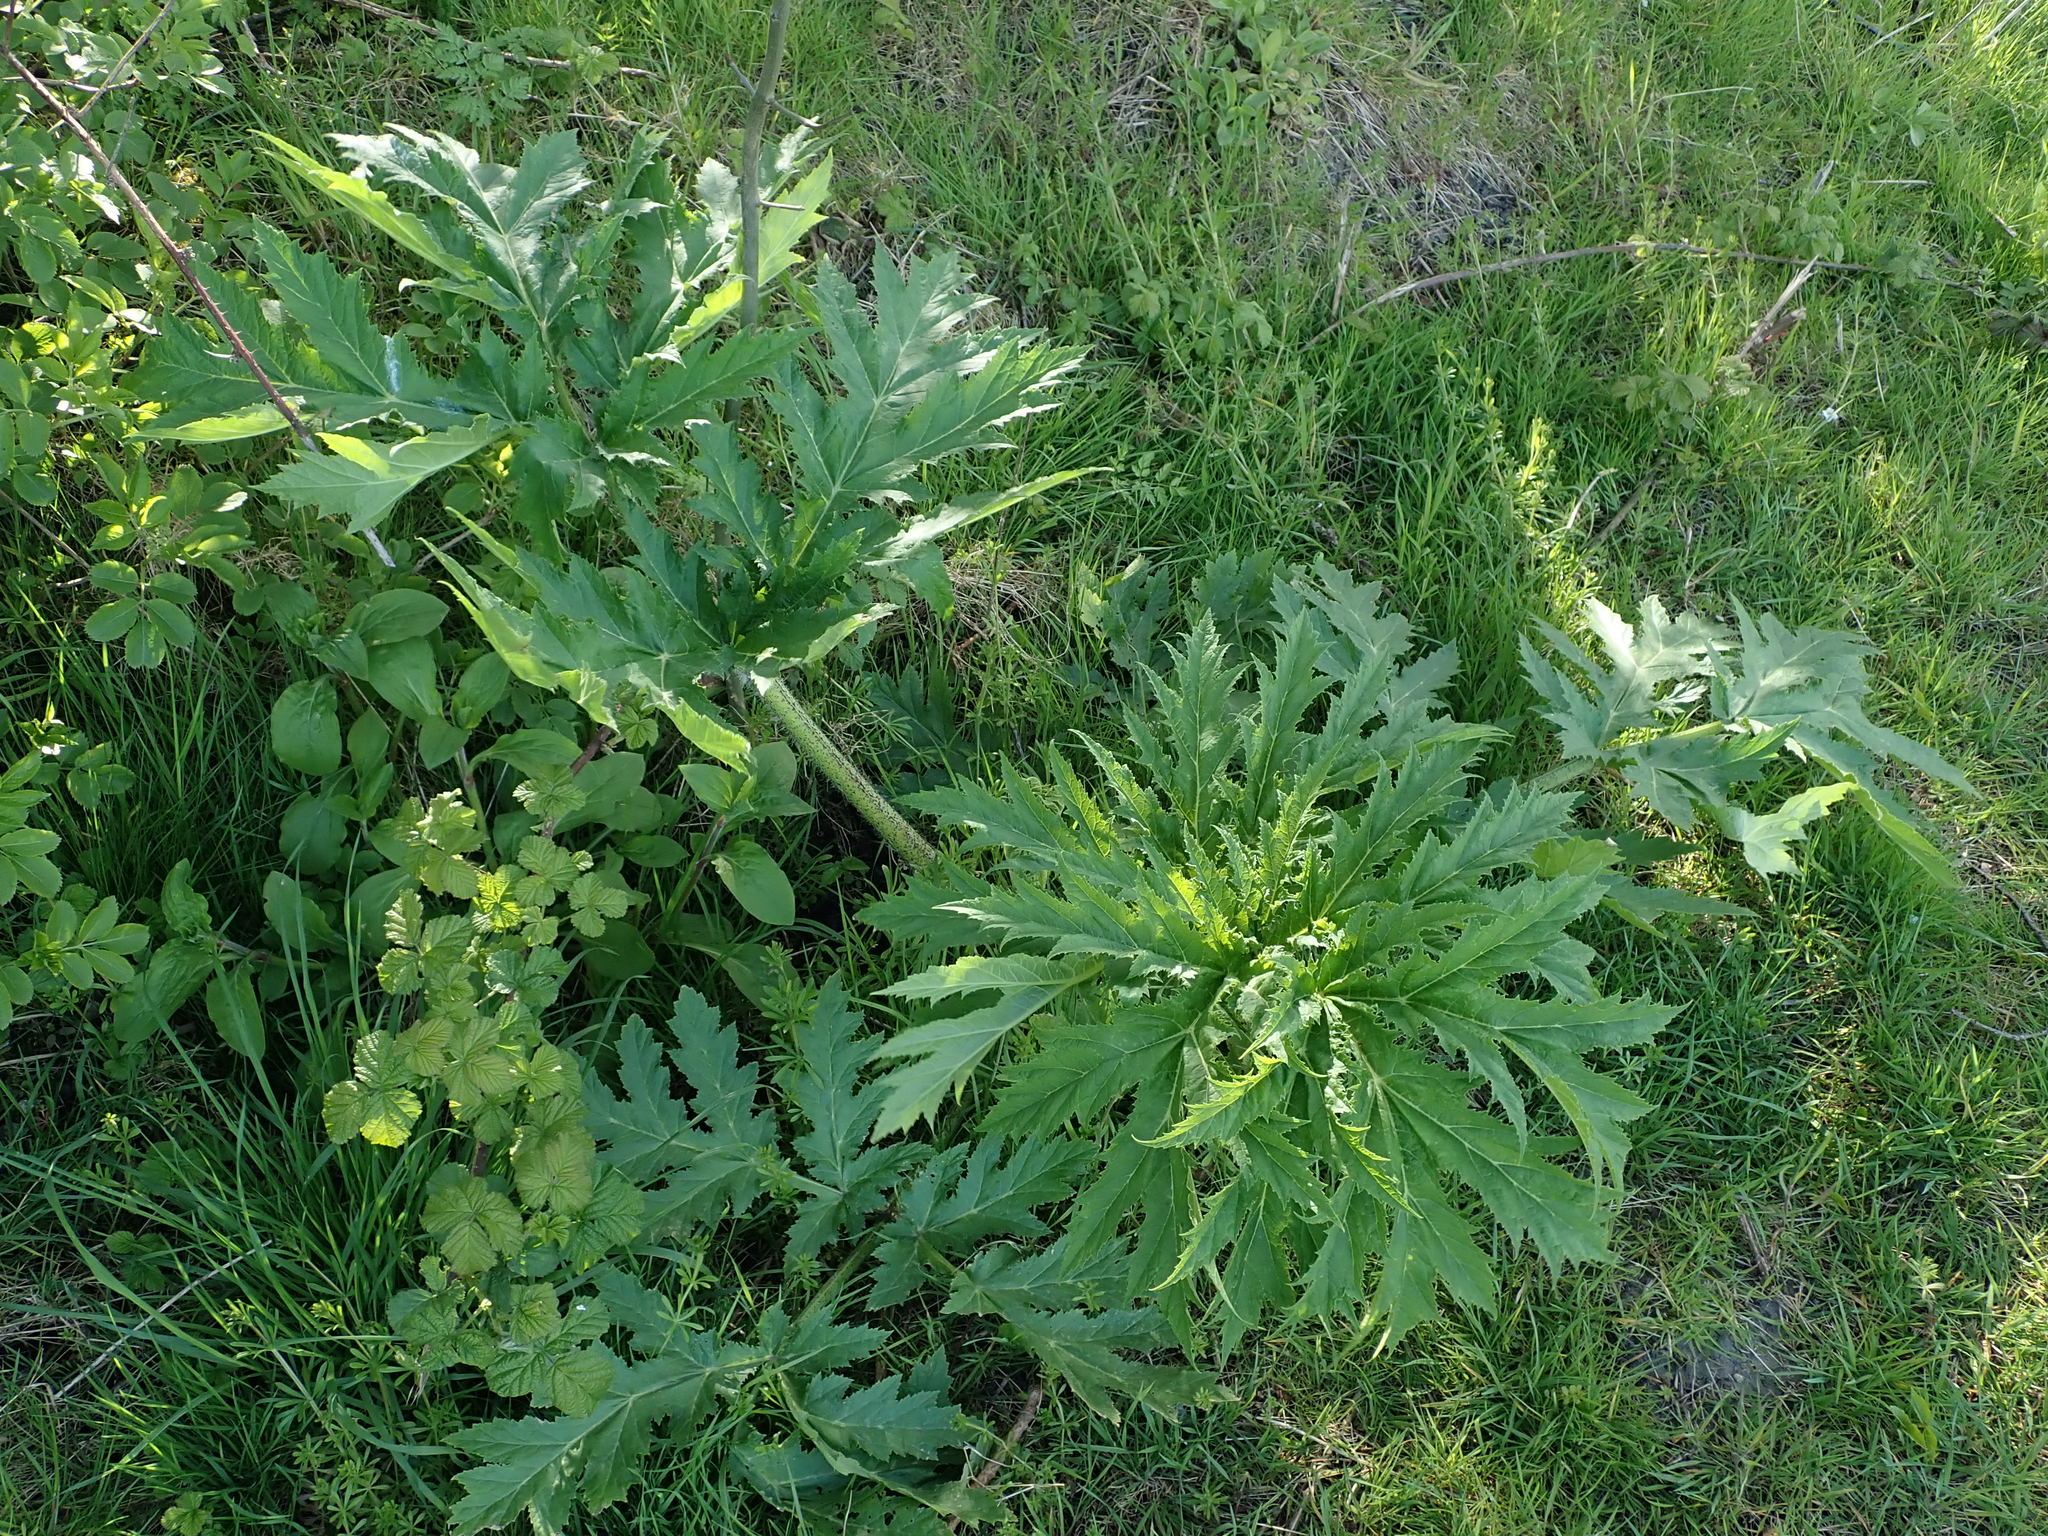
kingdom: Plantae
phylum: Tracheophyta
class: Magnoliopsida
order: Apiales
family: Apiaceae
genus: Heracleum
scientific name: Heracleum mantegazzianum
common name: Giant hogweed
